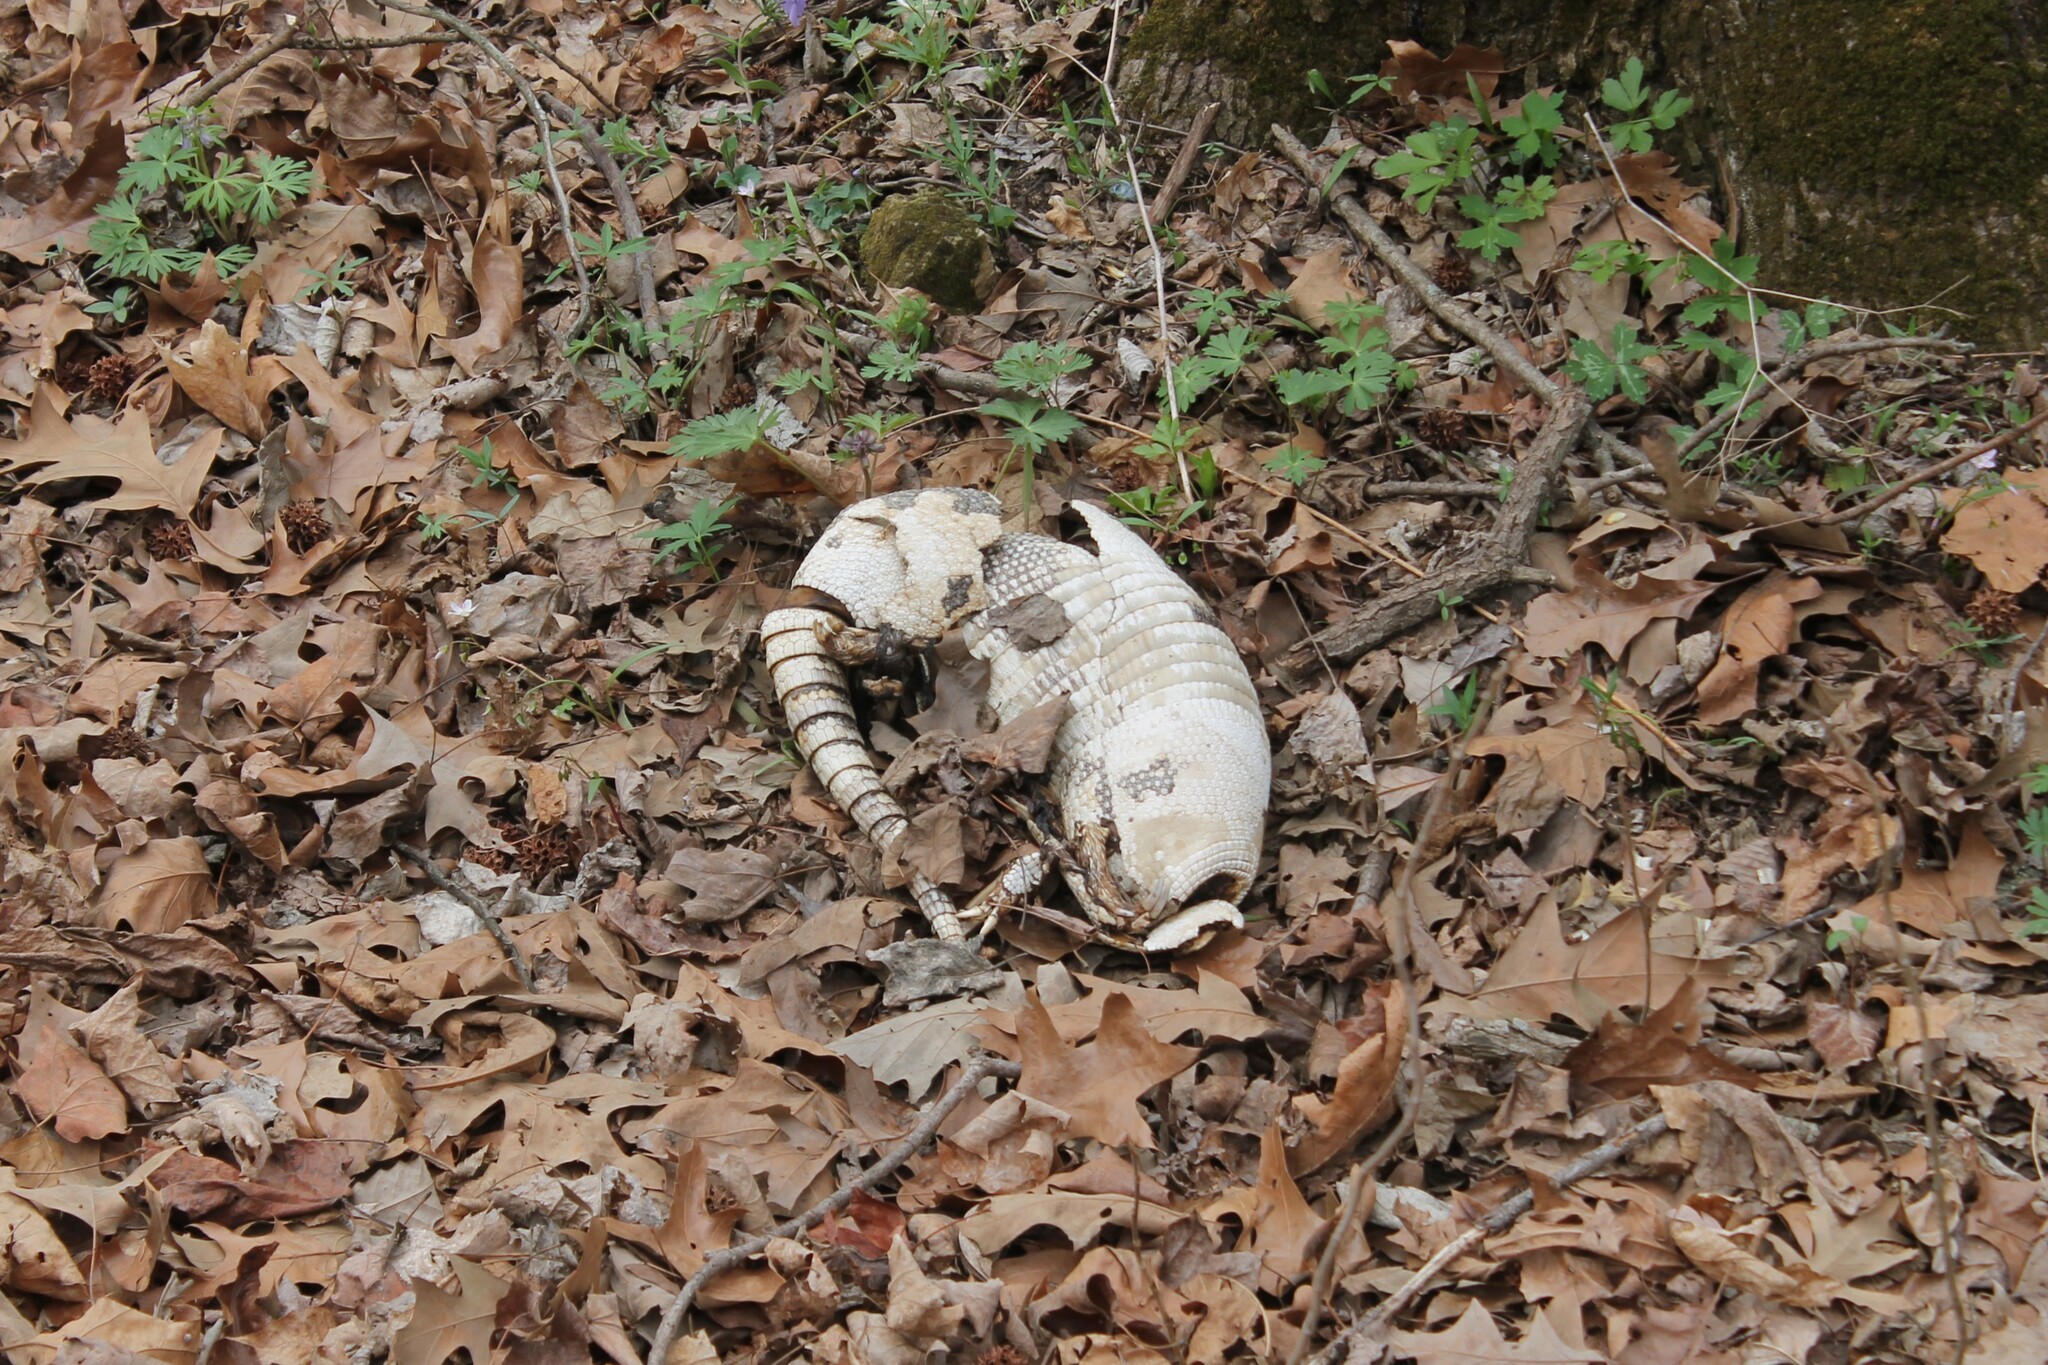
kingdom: Animalia
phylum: Chordata
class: Mammalia
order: Cingulata
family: Dasypodidae
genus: Dasypus
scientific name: Dasypus novemcinctus
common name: Nine-banded armadillo
